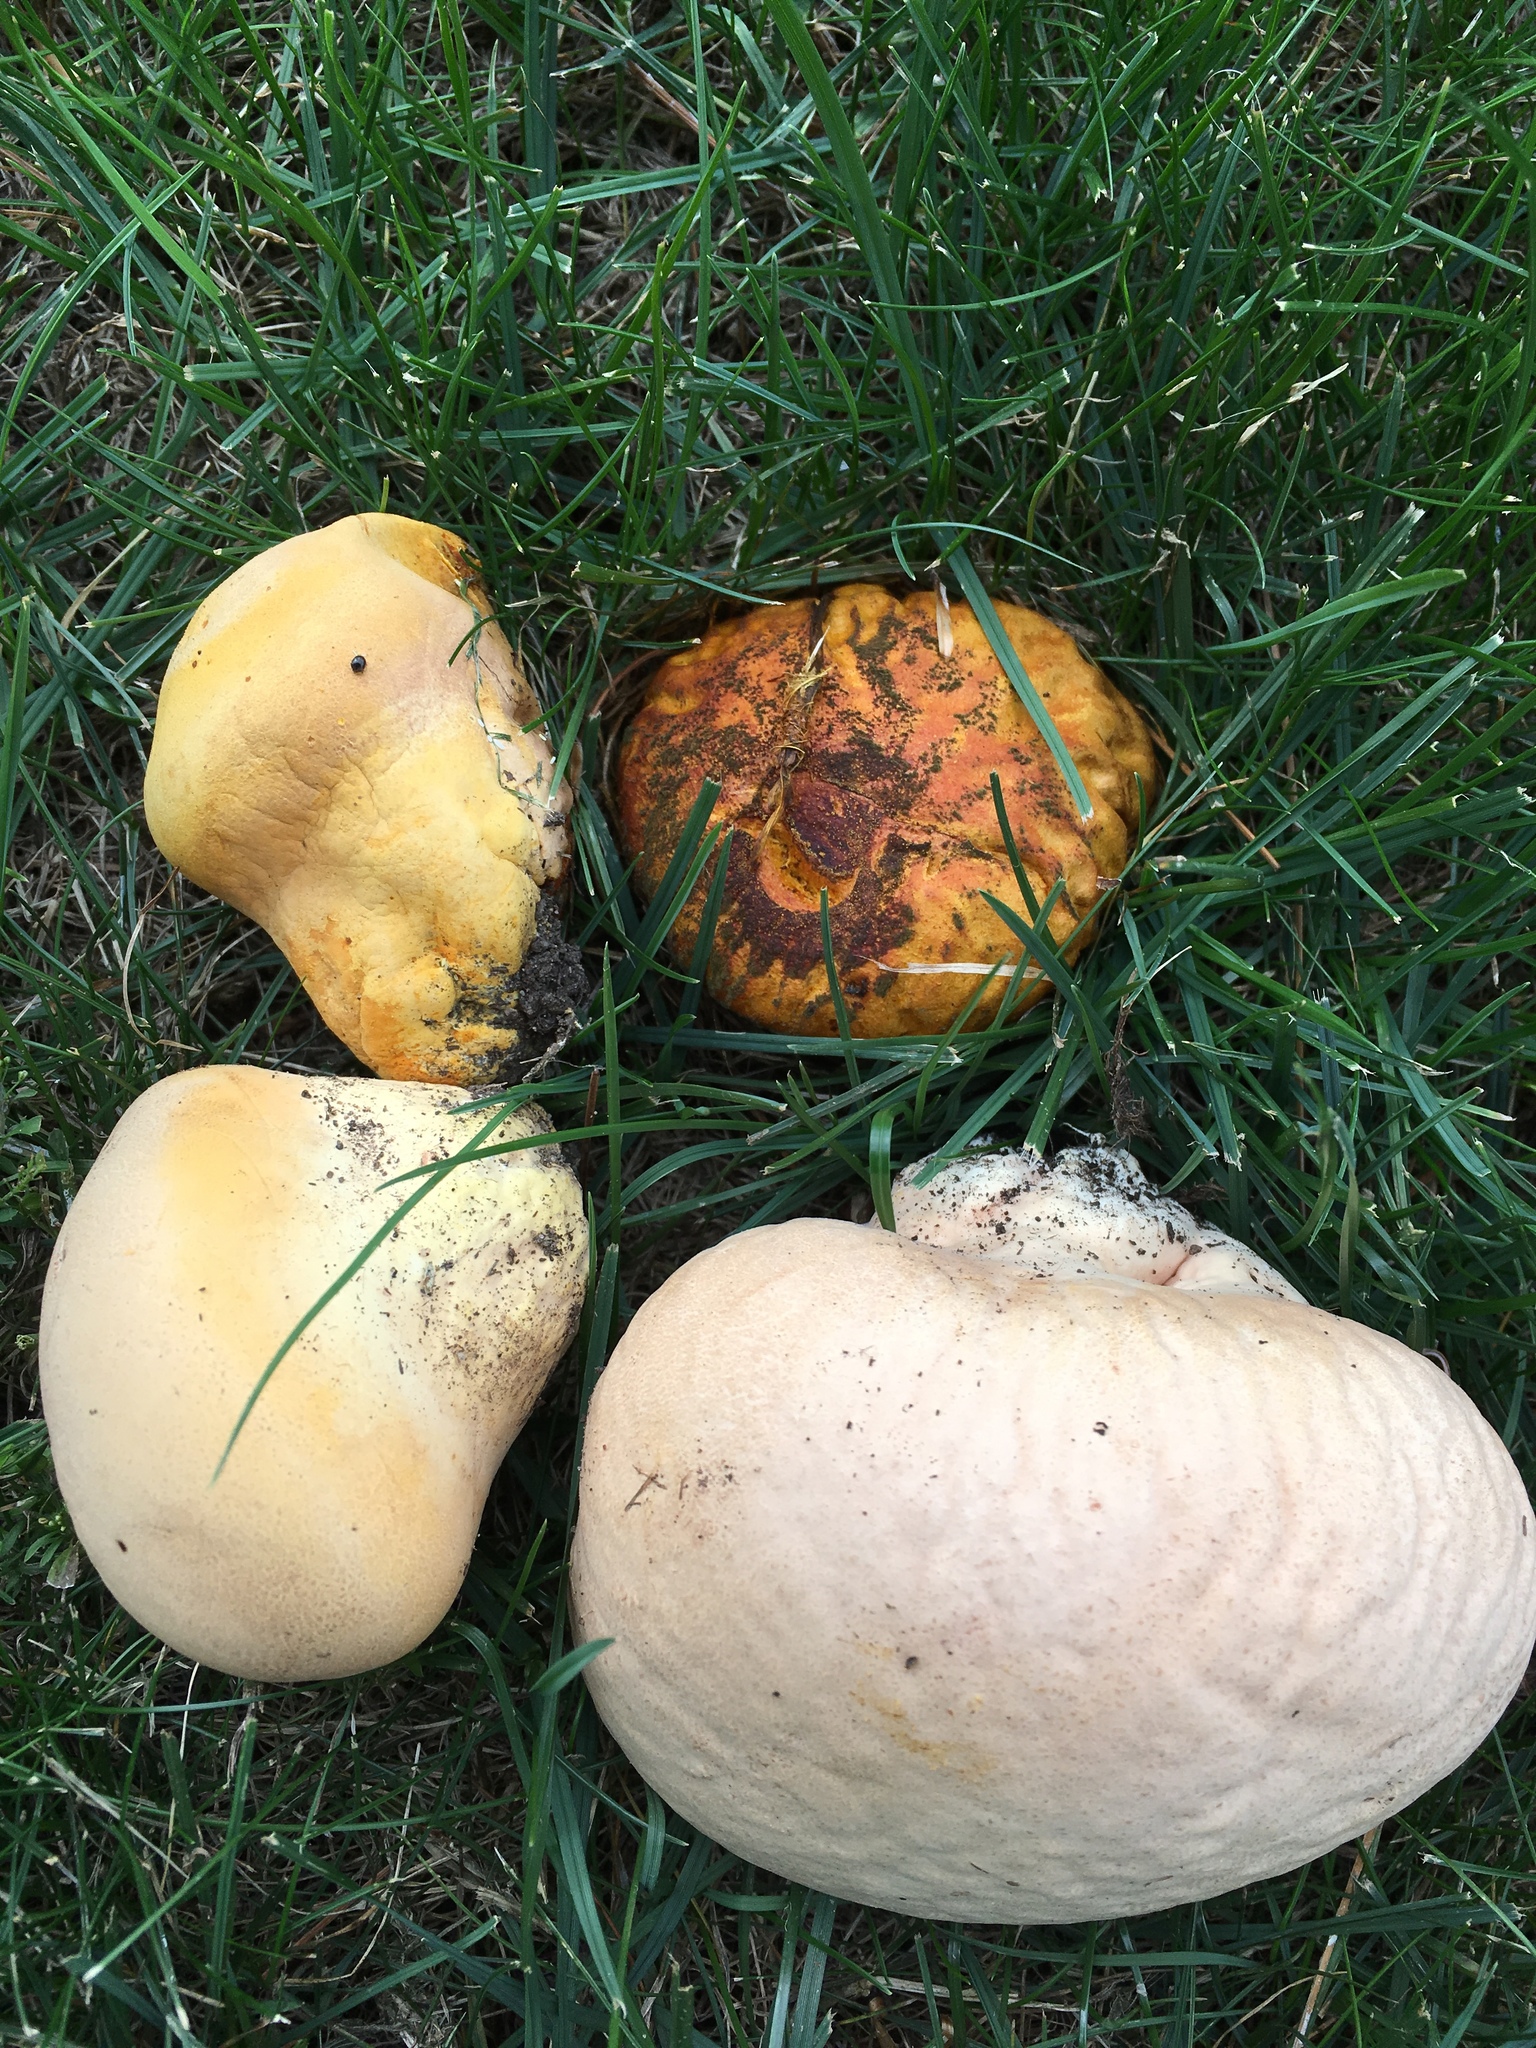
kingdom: Fungi
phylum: Basidiomycota
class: Agaricomycetes
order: Agaricales
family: Lycoperdaceae
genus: Calvatia
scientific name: Calvatia candida
